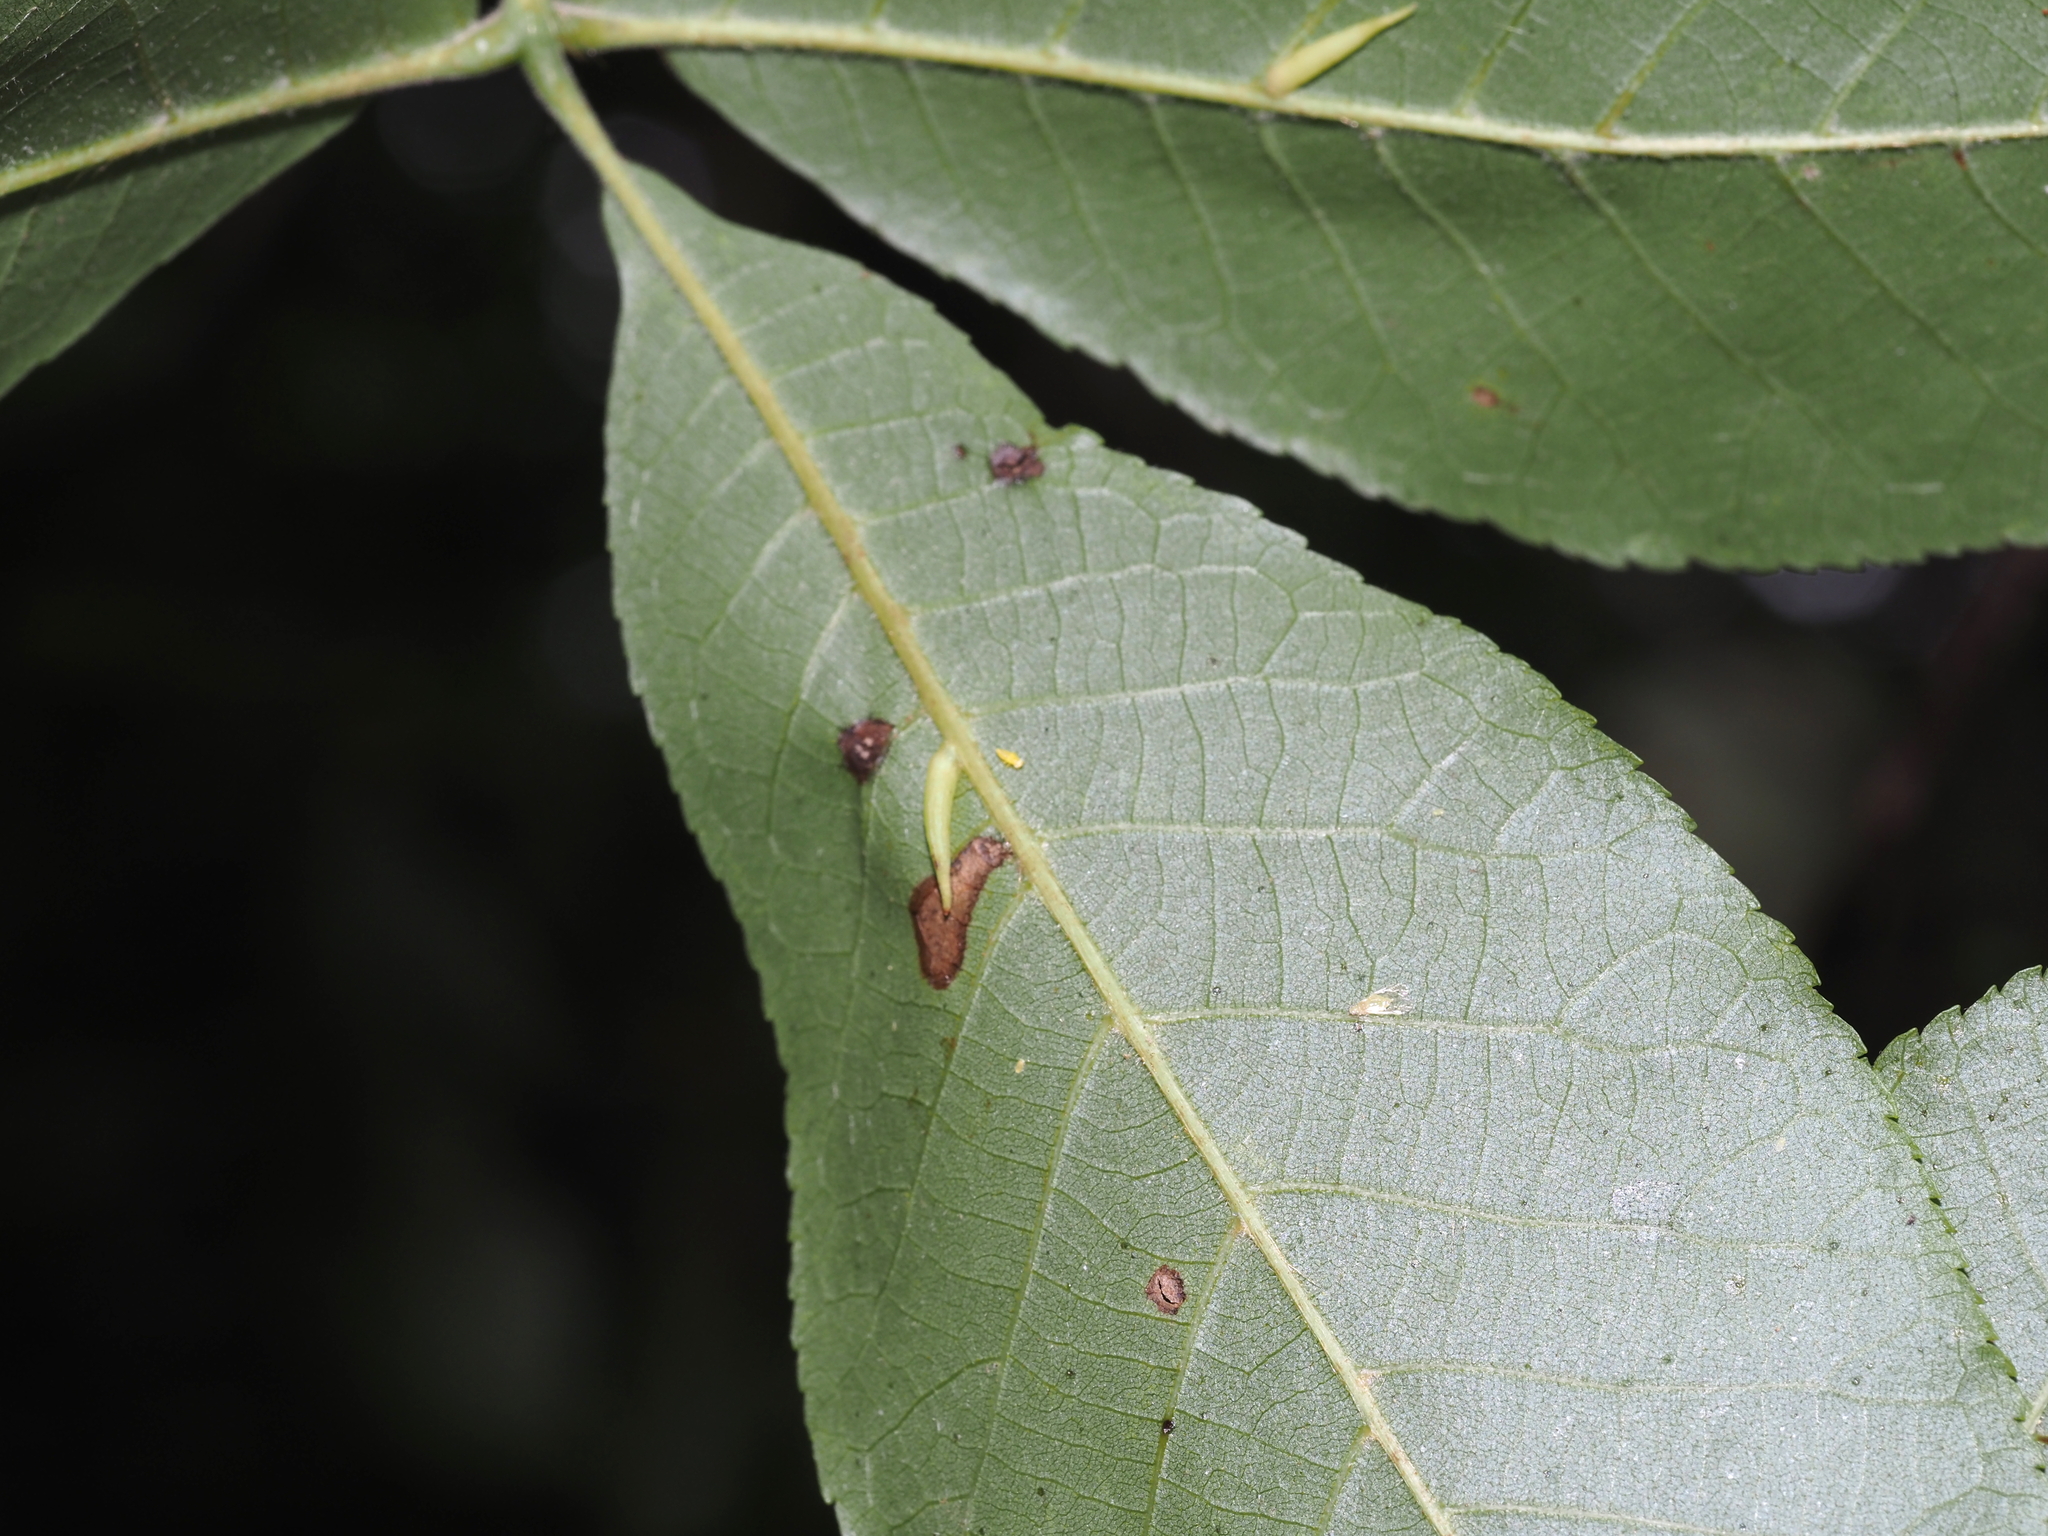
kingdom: Animalia
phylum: Arthropoda
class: Insecta
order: Diptera
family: Cecidomyiidae
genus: Caryomyia
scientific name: Caryomyia
